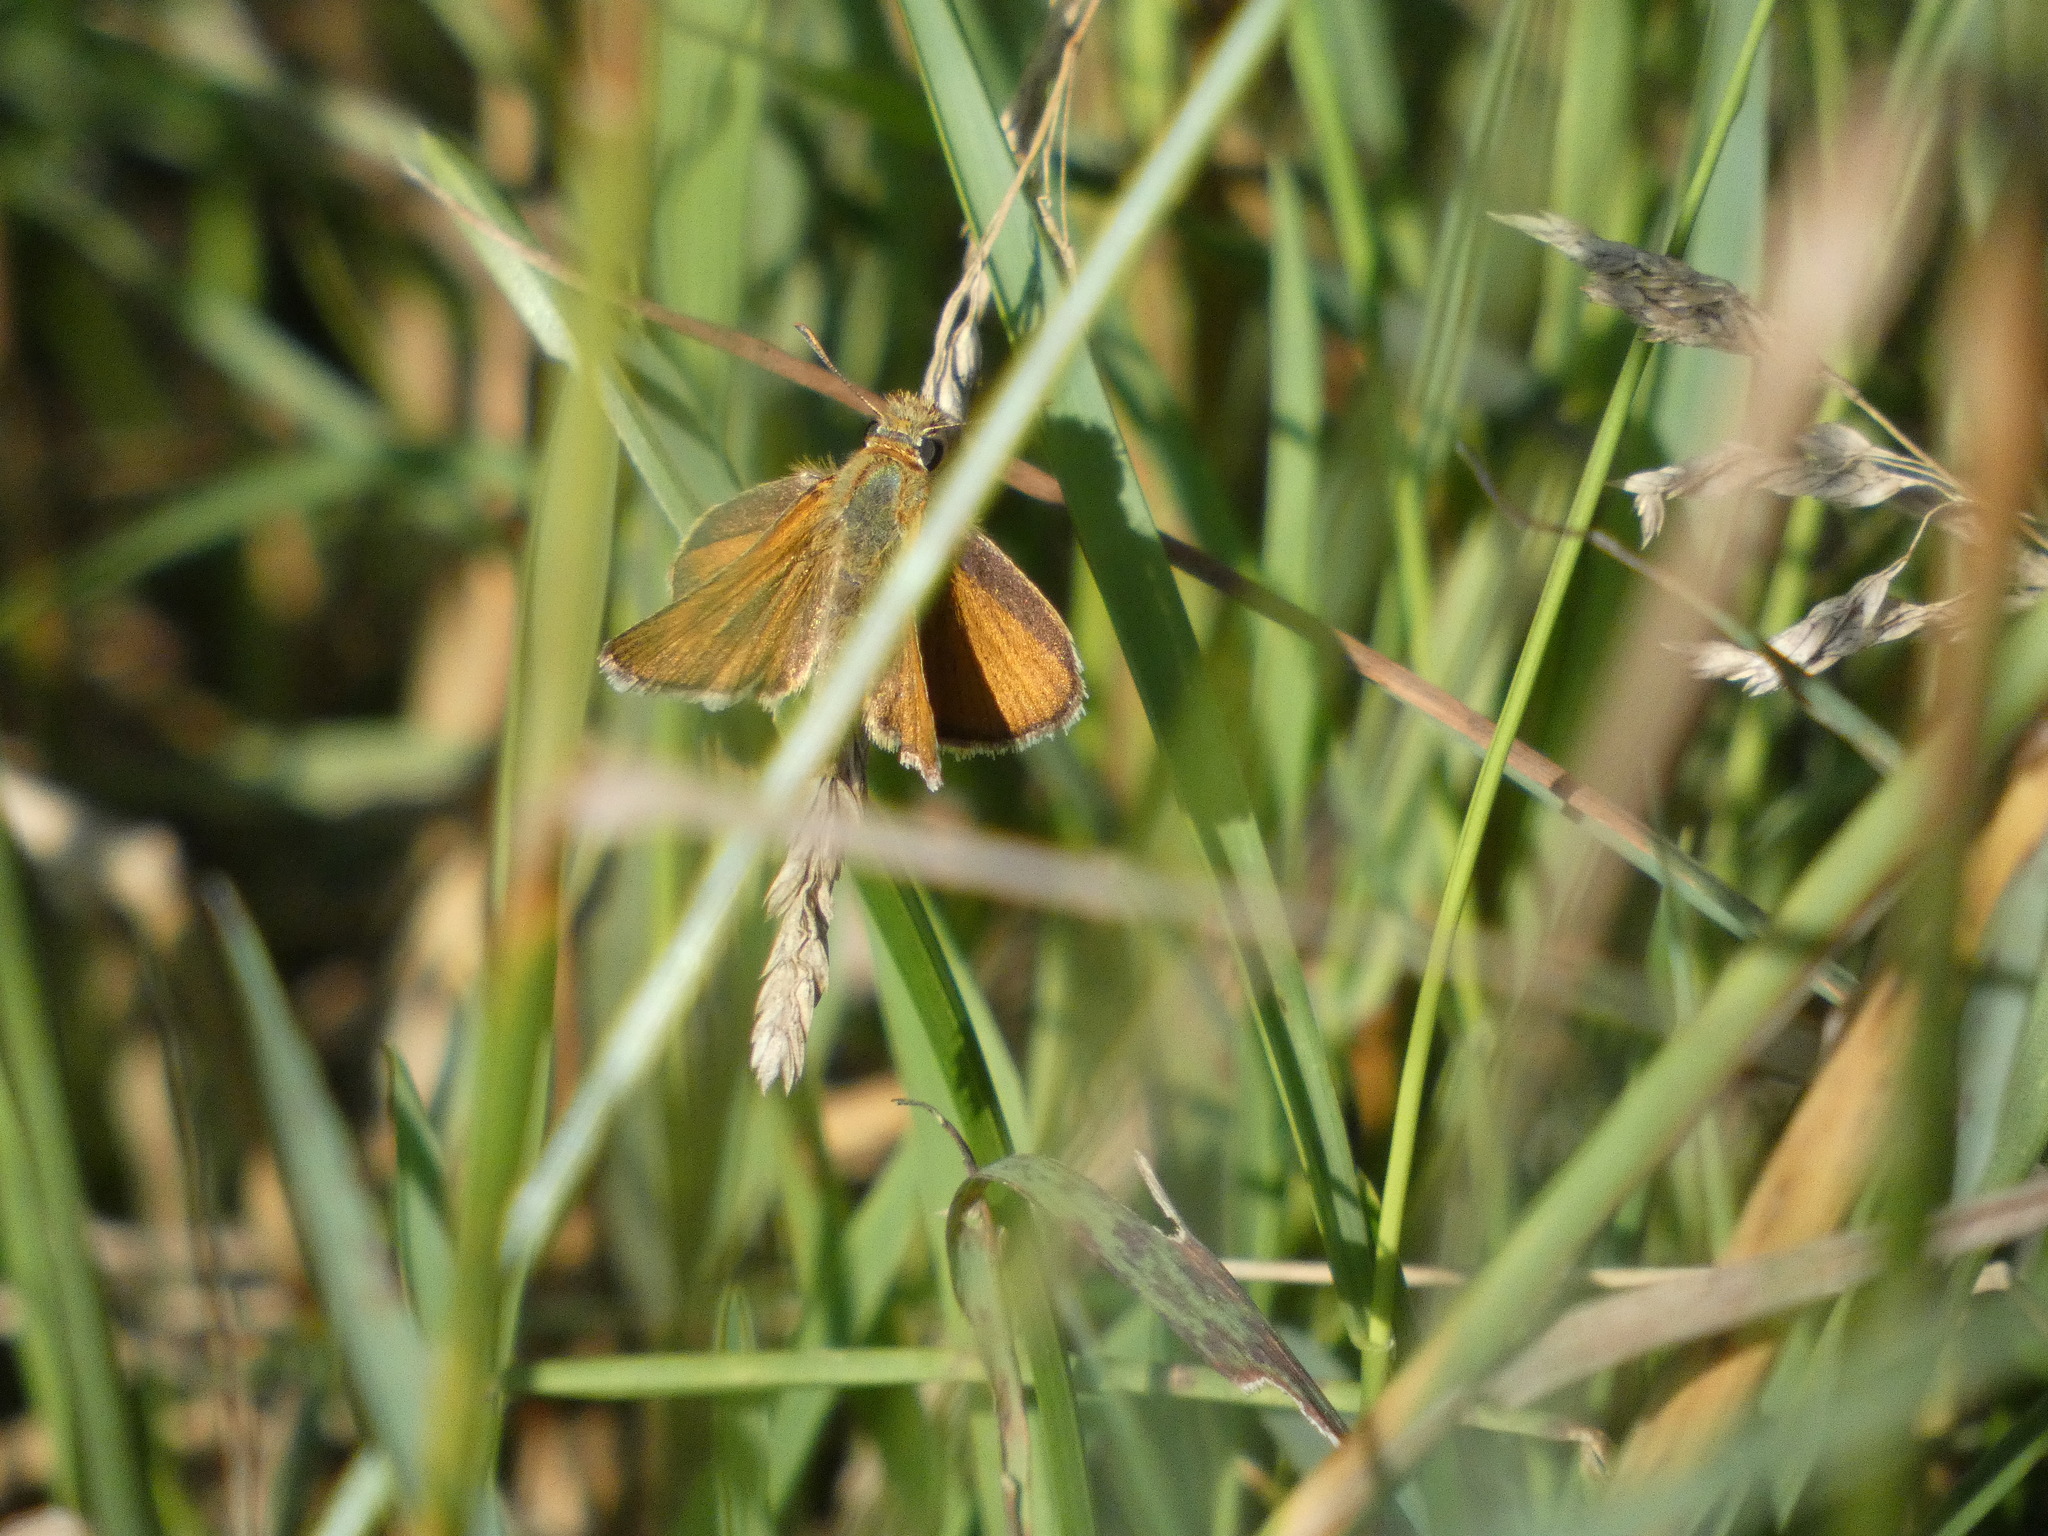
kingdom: Animalia
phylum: Arthropoda
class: Insecta
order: Lepidoptera
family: Hesperiidae
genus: Thymelicus
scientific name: Thymelicus acteon
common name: Lulworth skipper
